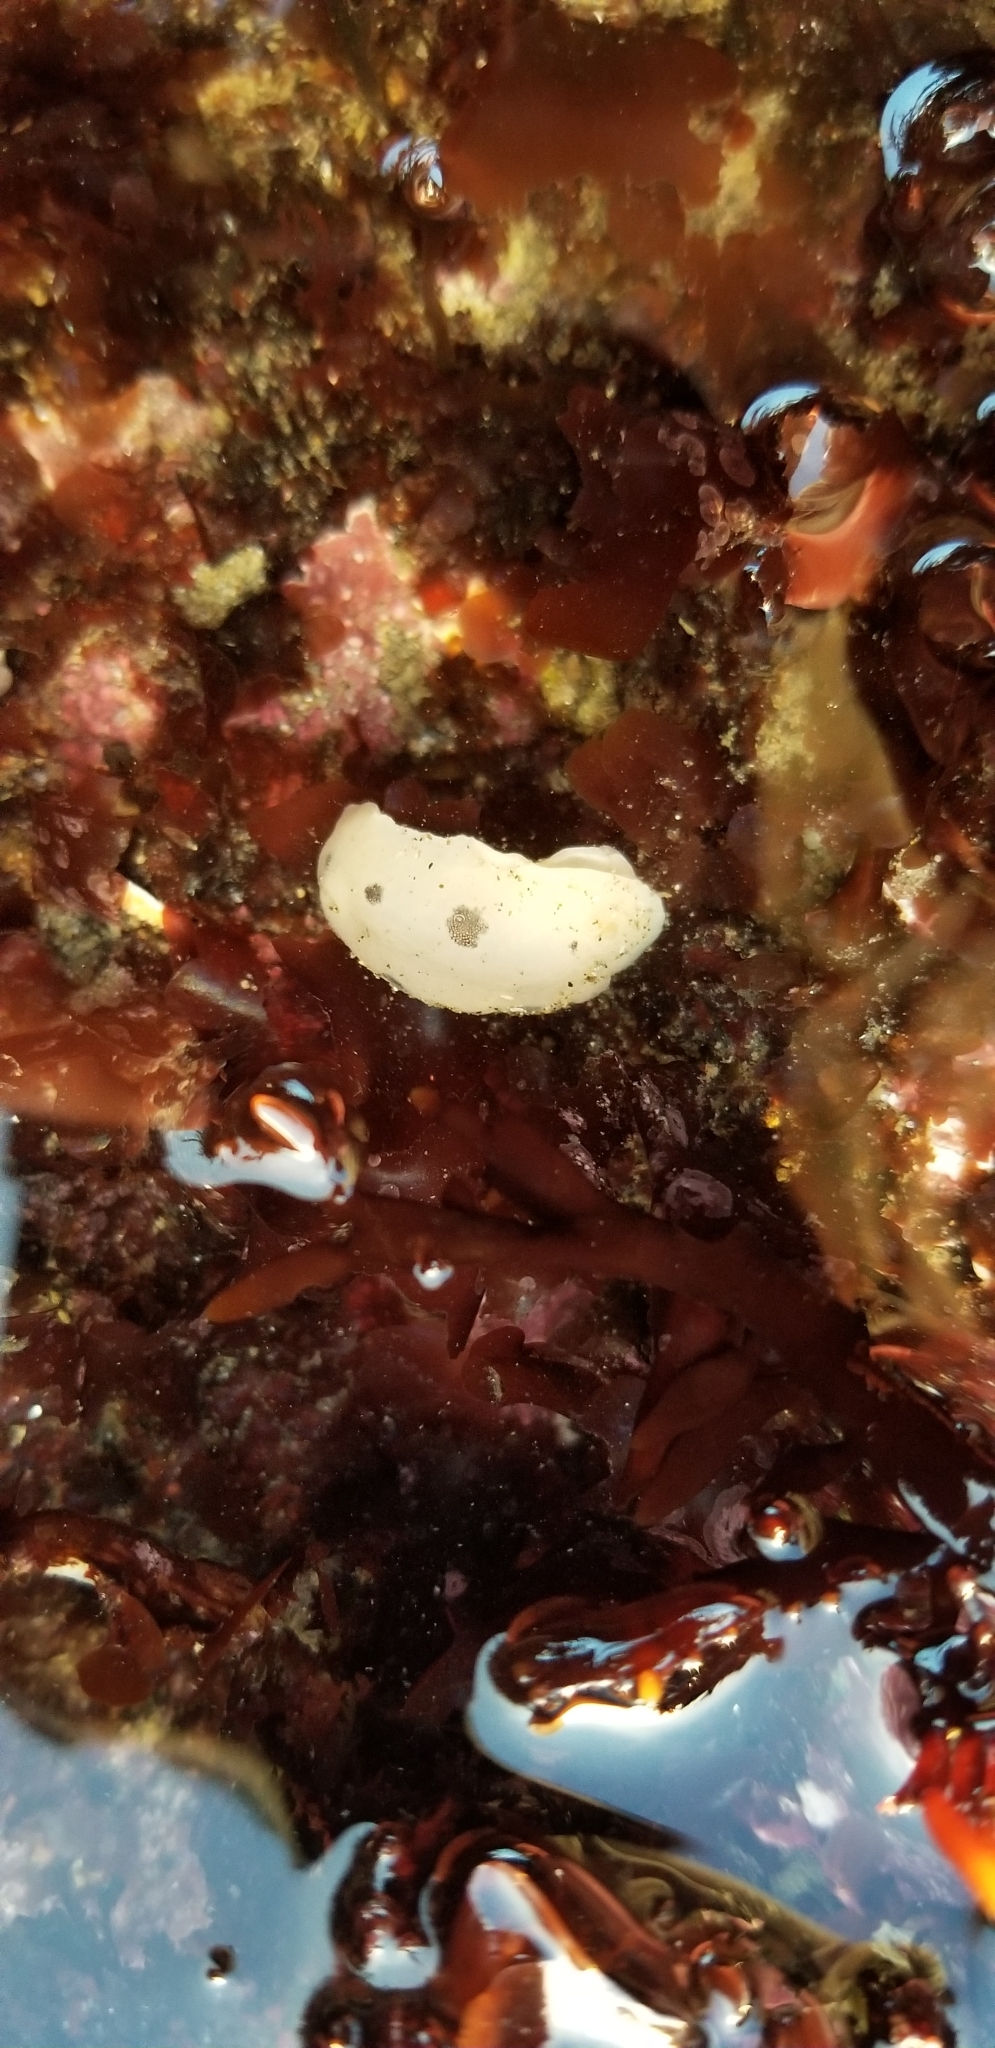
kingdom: Animalia
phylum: Mollusca
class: Gastropoda
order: Nudibranchia
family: Discodorididae
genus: Diaulula
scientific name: Diaulula sandiegensis
